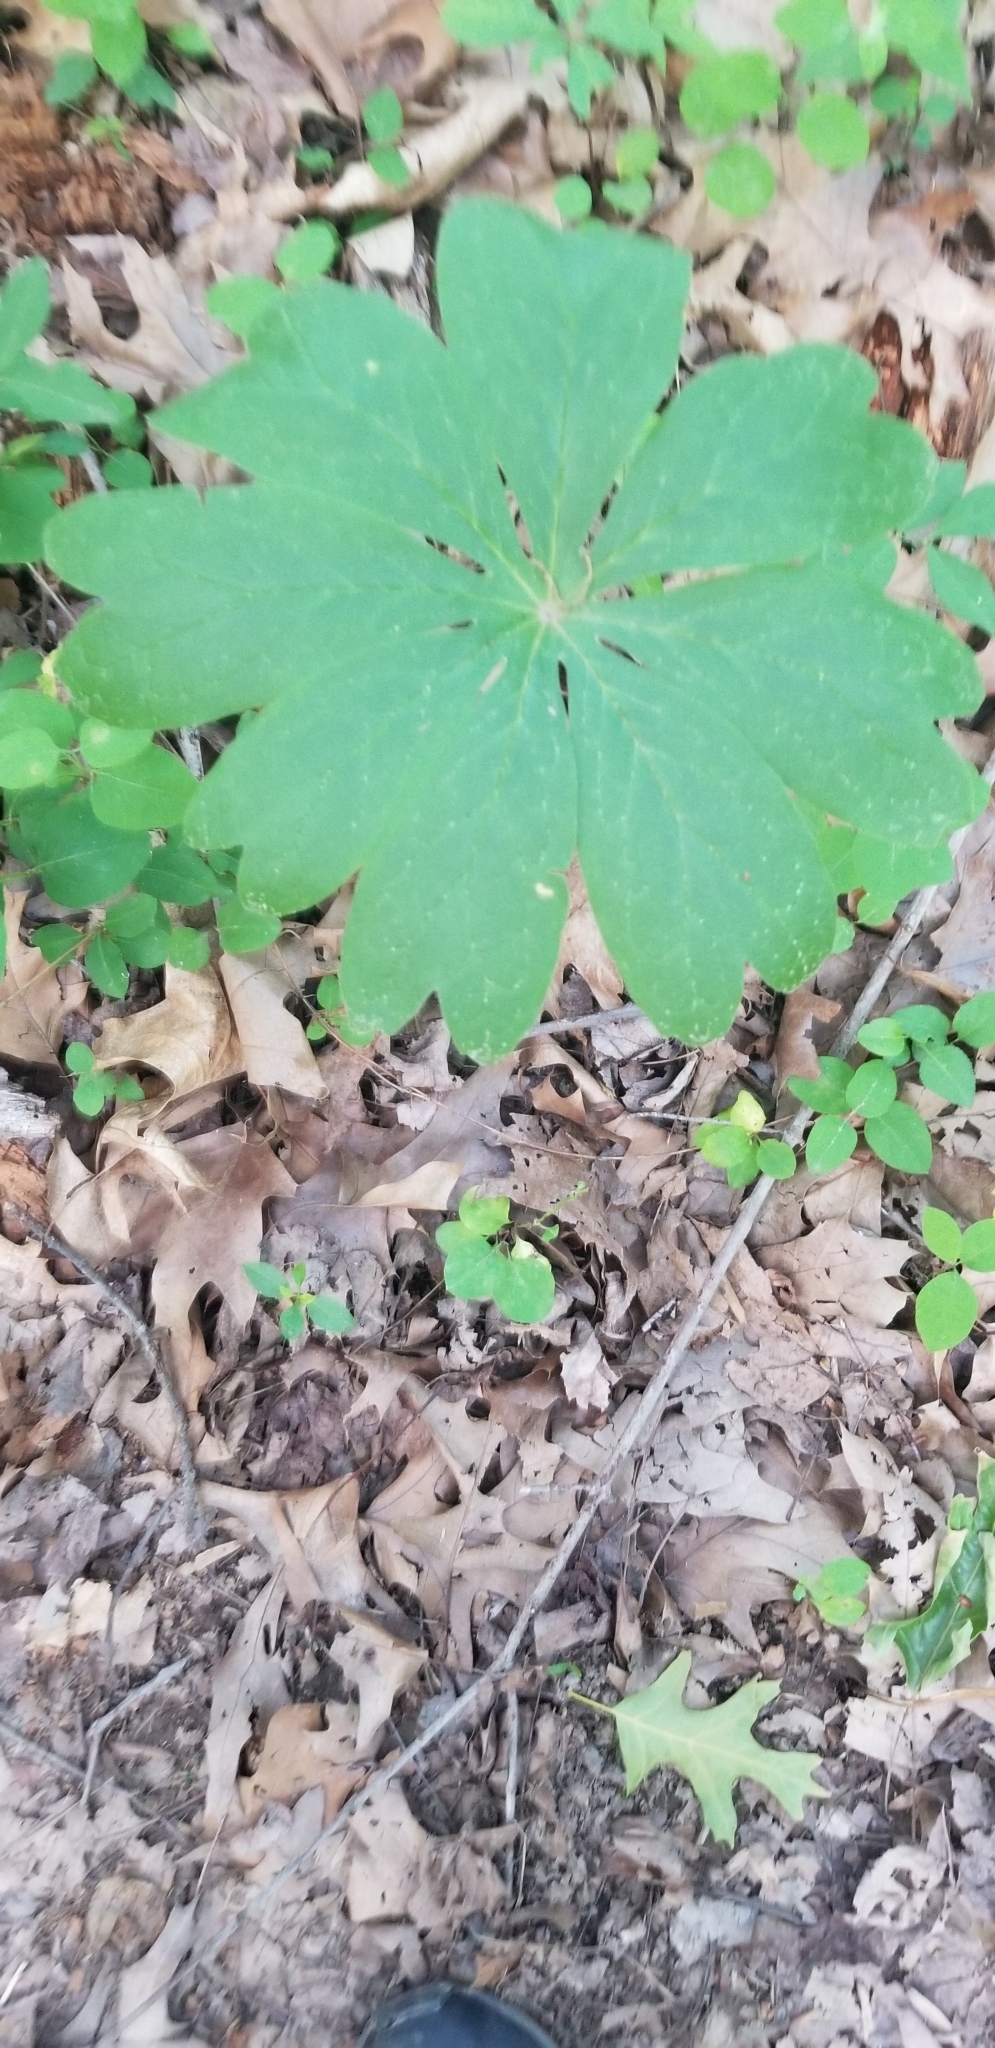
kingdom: Plantae
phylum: Tracheophyta
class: Magnoliopsida
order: Ranunculales
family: Berberidaceae
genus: Podophyllum
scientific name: Podophyllum peltatum
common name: Wild mandrake
